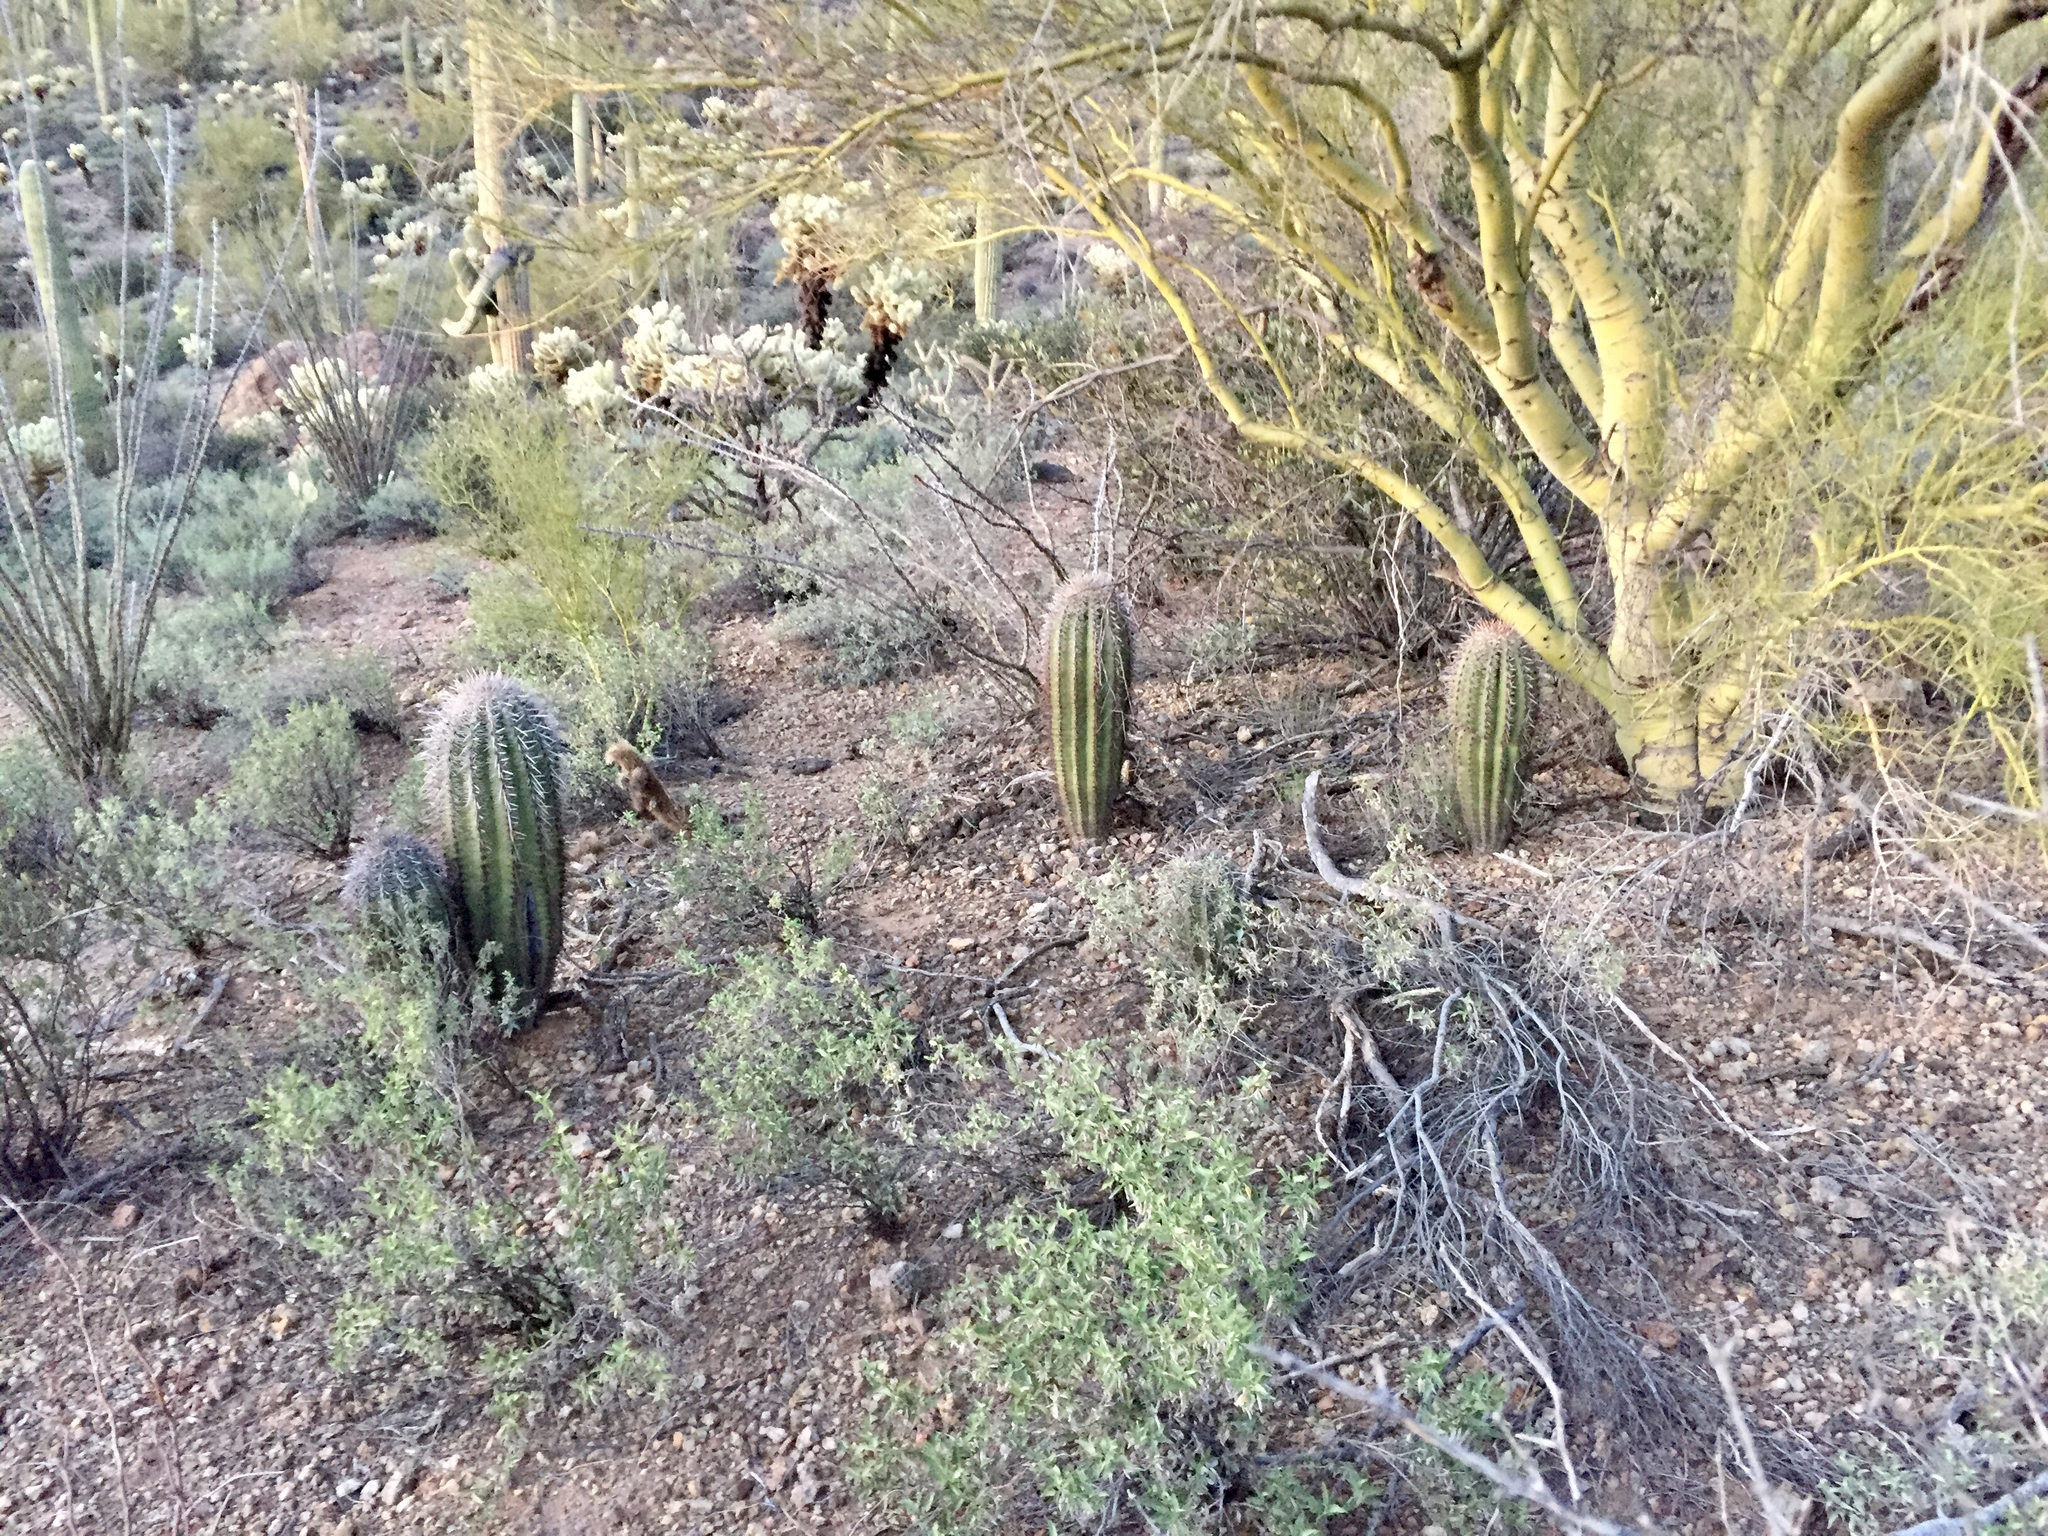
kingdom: Plantae
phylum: Tracheophyta
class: Magnoliopsida
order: Caryophyllales
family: Cactaceae
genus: Carnegiea
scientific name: Carnegiea gigantea
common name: Saguaro
